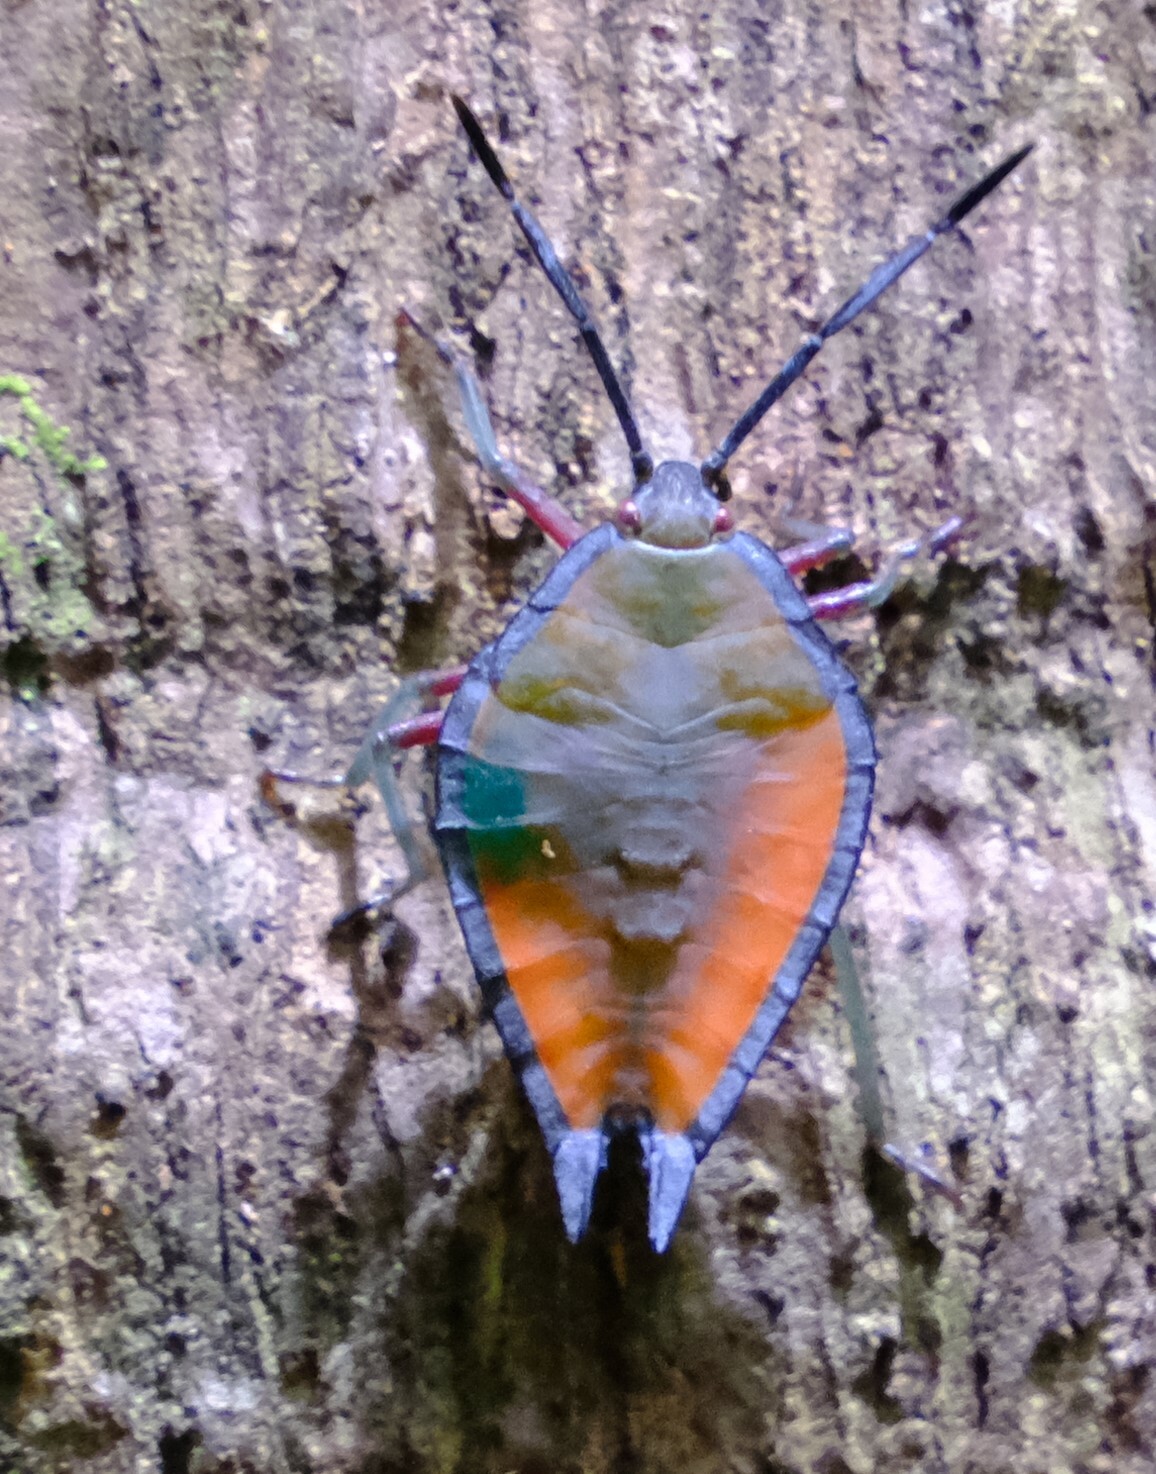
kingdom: Animalia
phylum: Arthropoda
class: Insecta
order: Hemiptera
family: Tessaratomidae
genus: Lyramorpha
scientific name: Lyramorpha rosea
